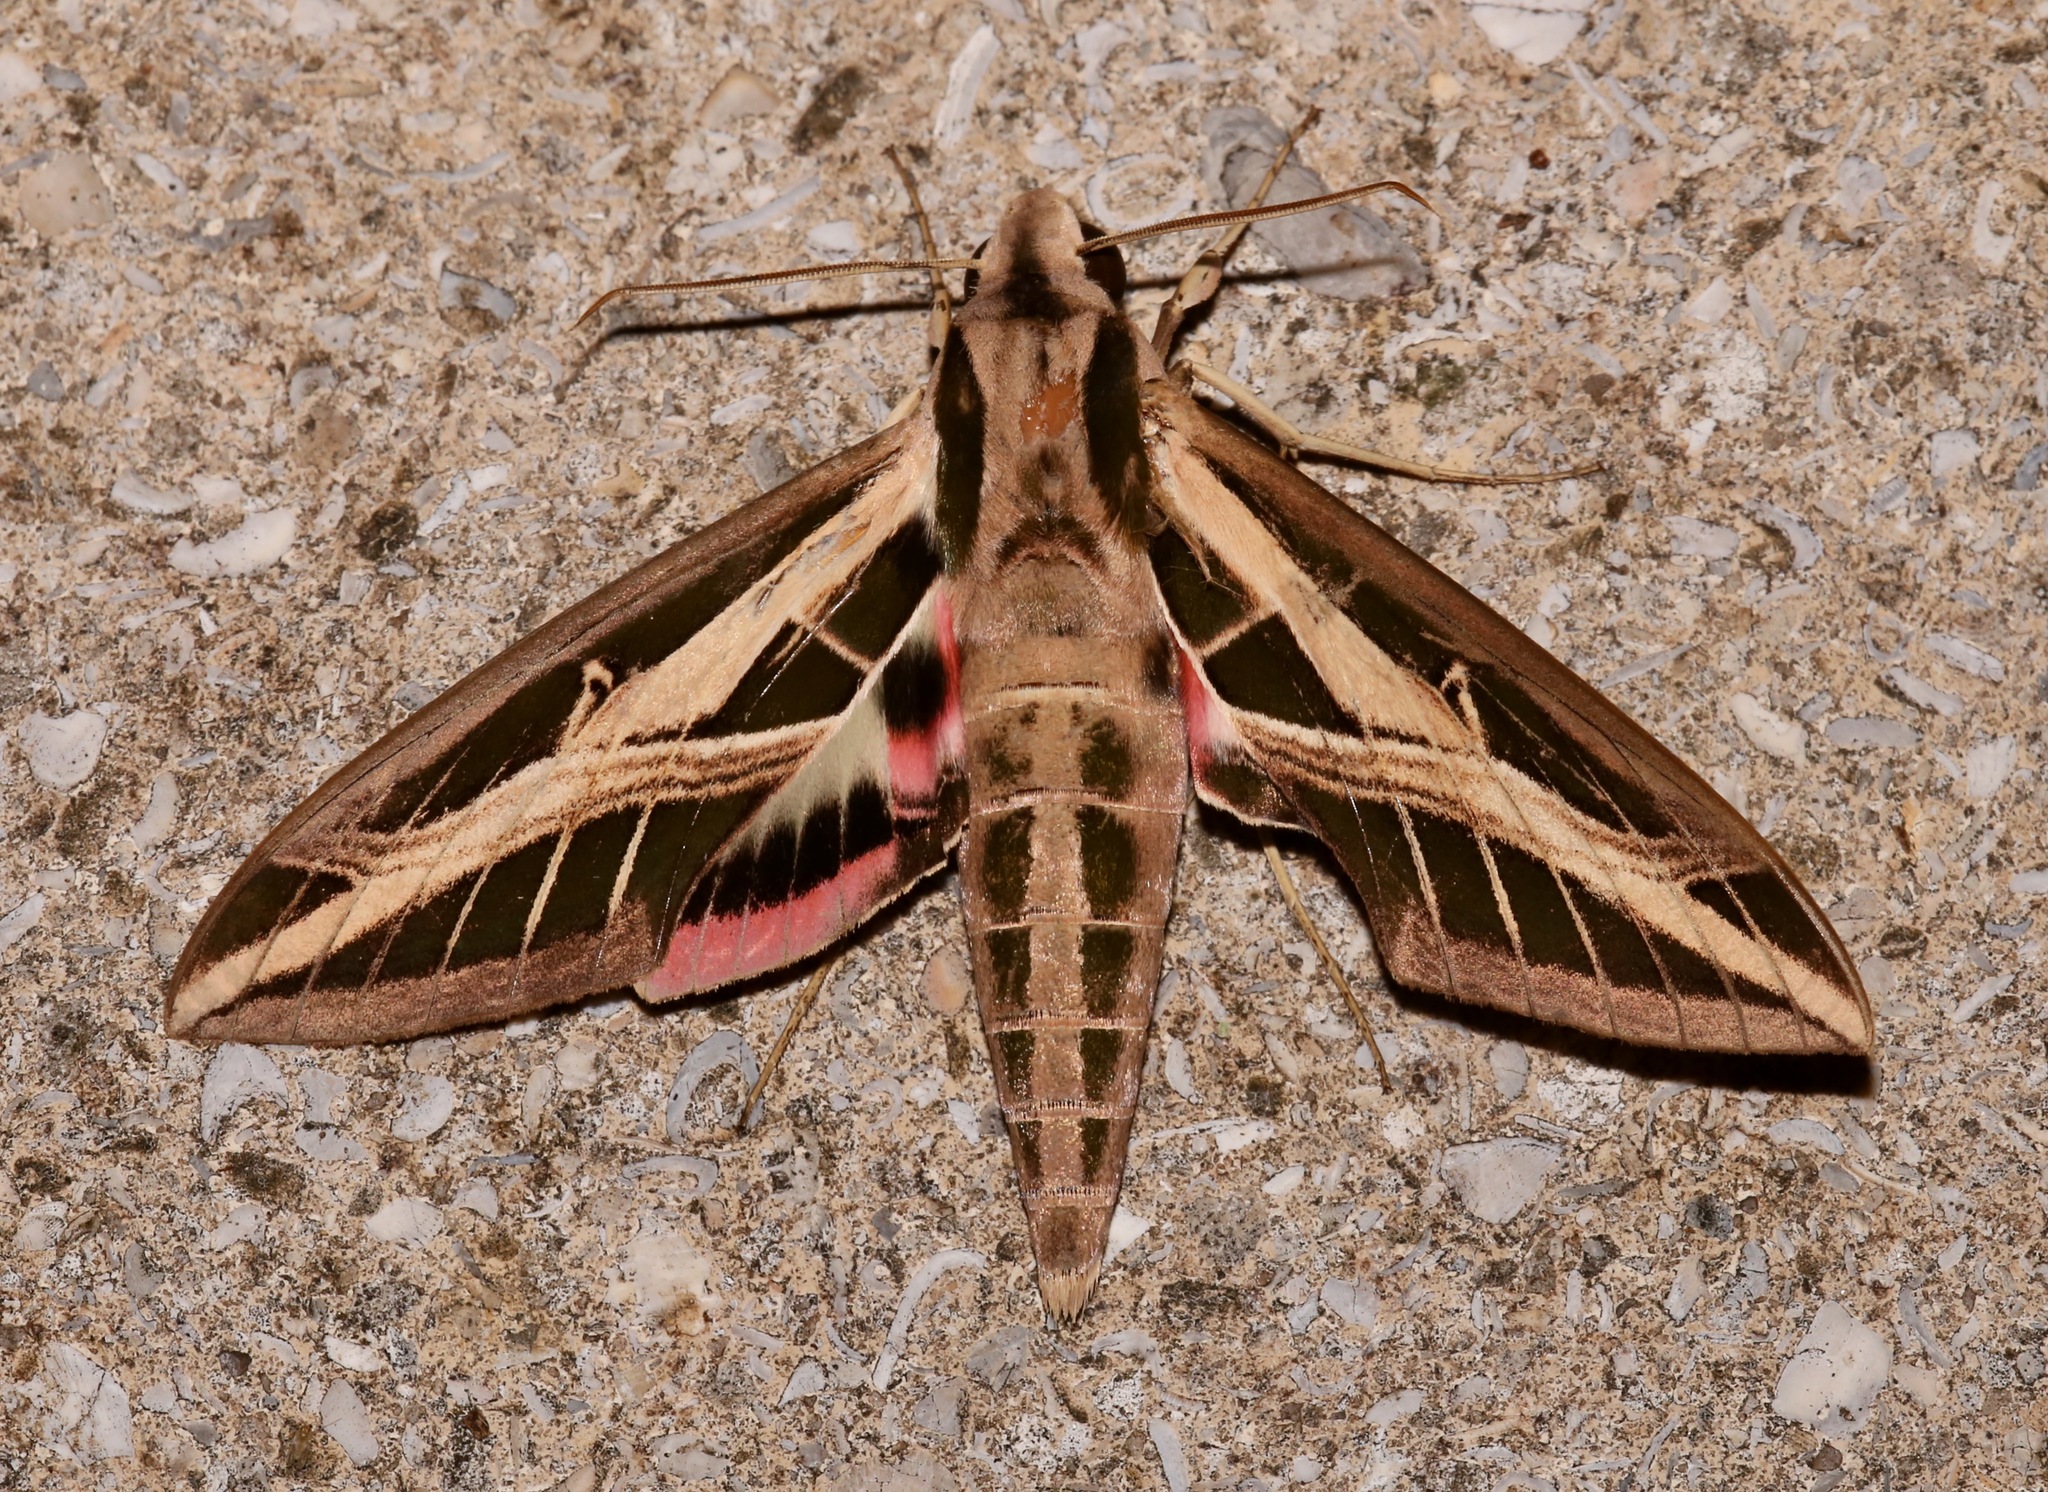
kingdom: Animalia
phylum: Arthropoda
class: Insecta
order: Lepidoptera
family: Sphingidae
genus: Eumorpha
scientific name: Eumorpha fasciatus
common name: Banded sphinx
